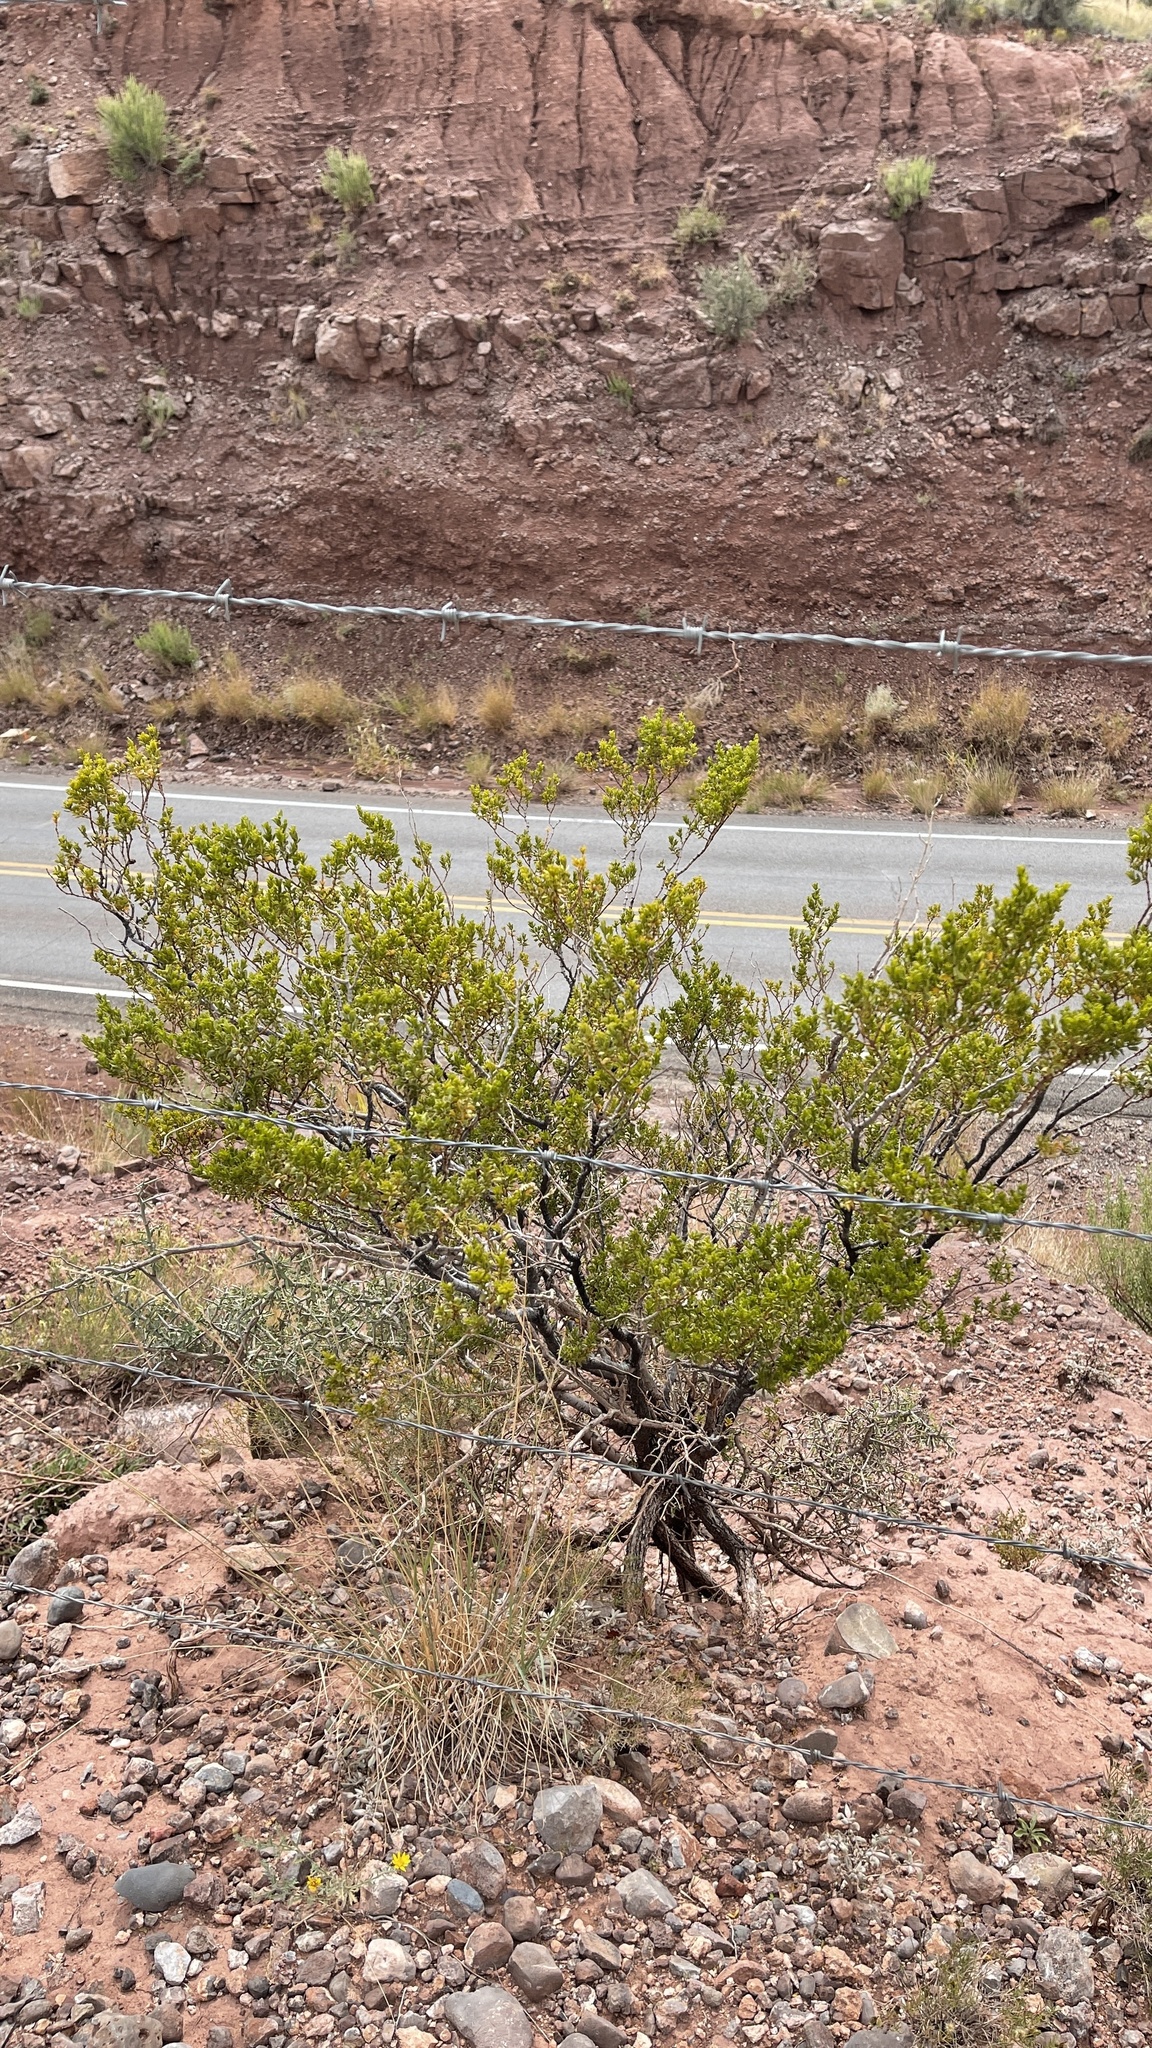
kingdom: Plantae
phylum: Tracheophyta
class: Magnoliopsida
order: Zygophyllales
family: Zygophyllaceae
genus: Larrea
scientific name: Larrea tridentata
